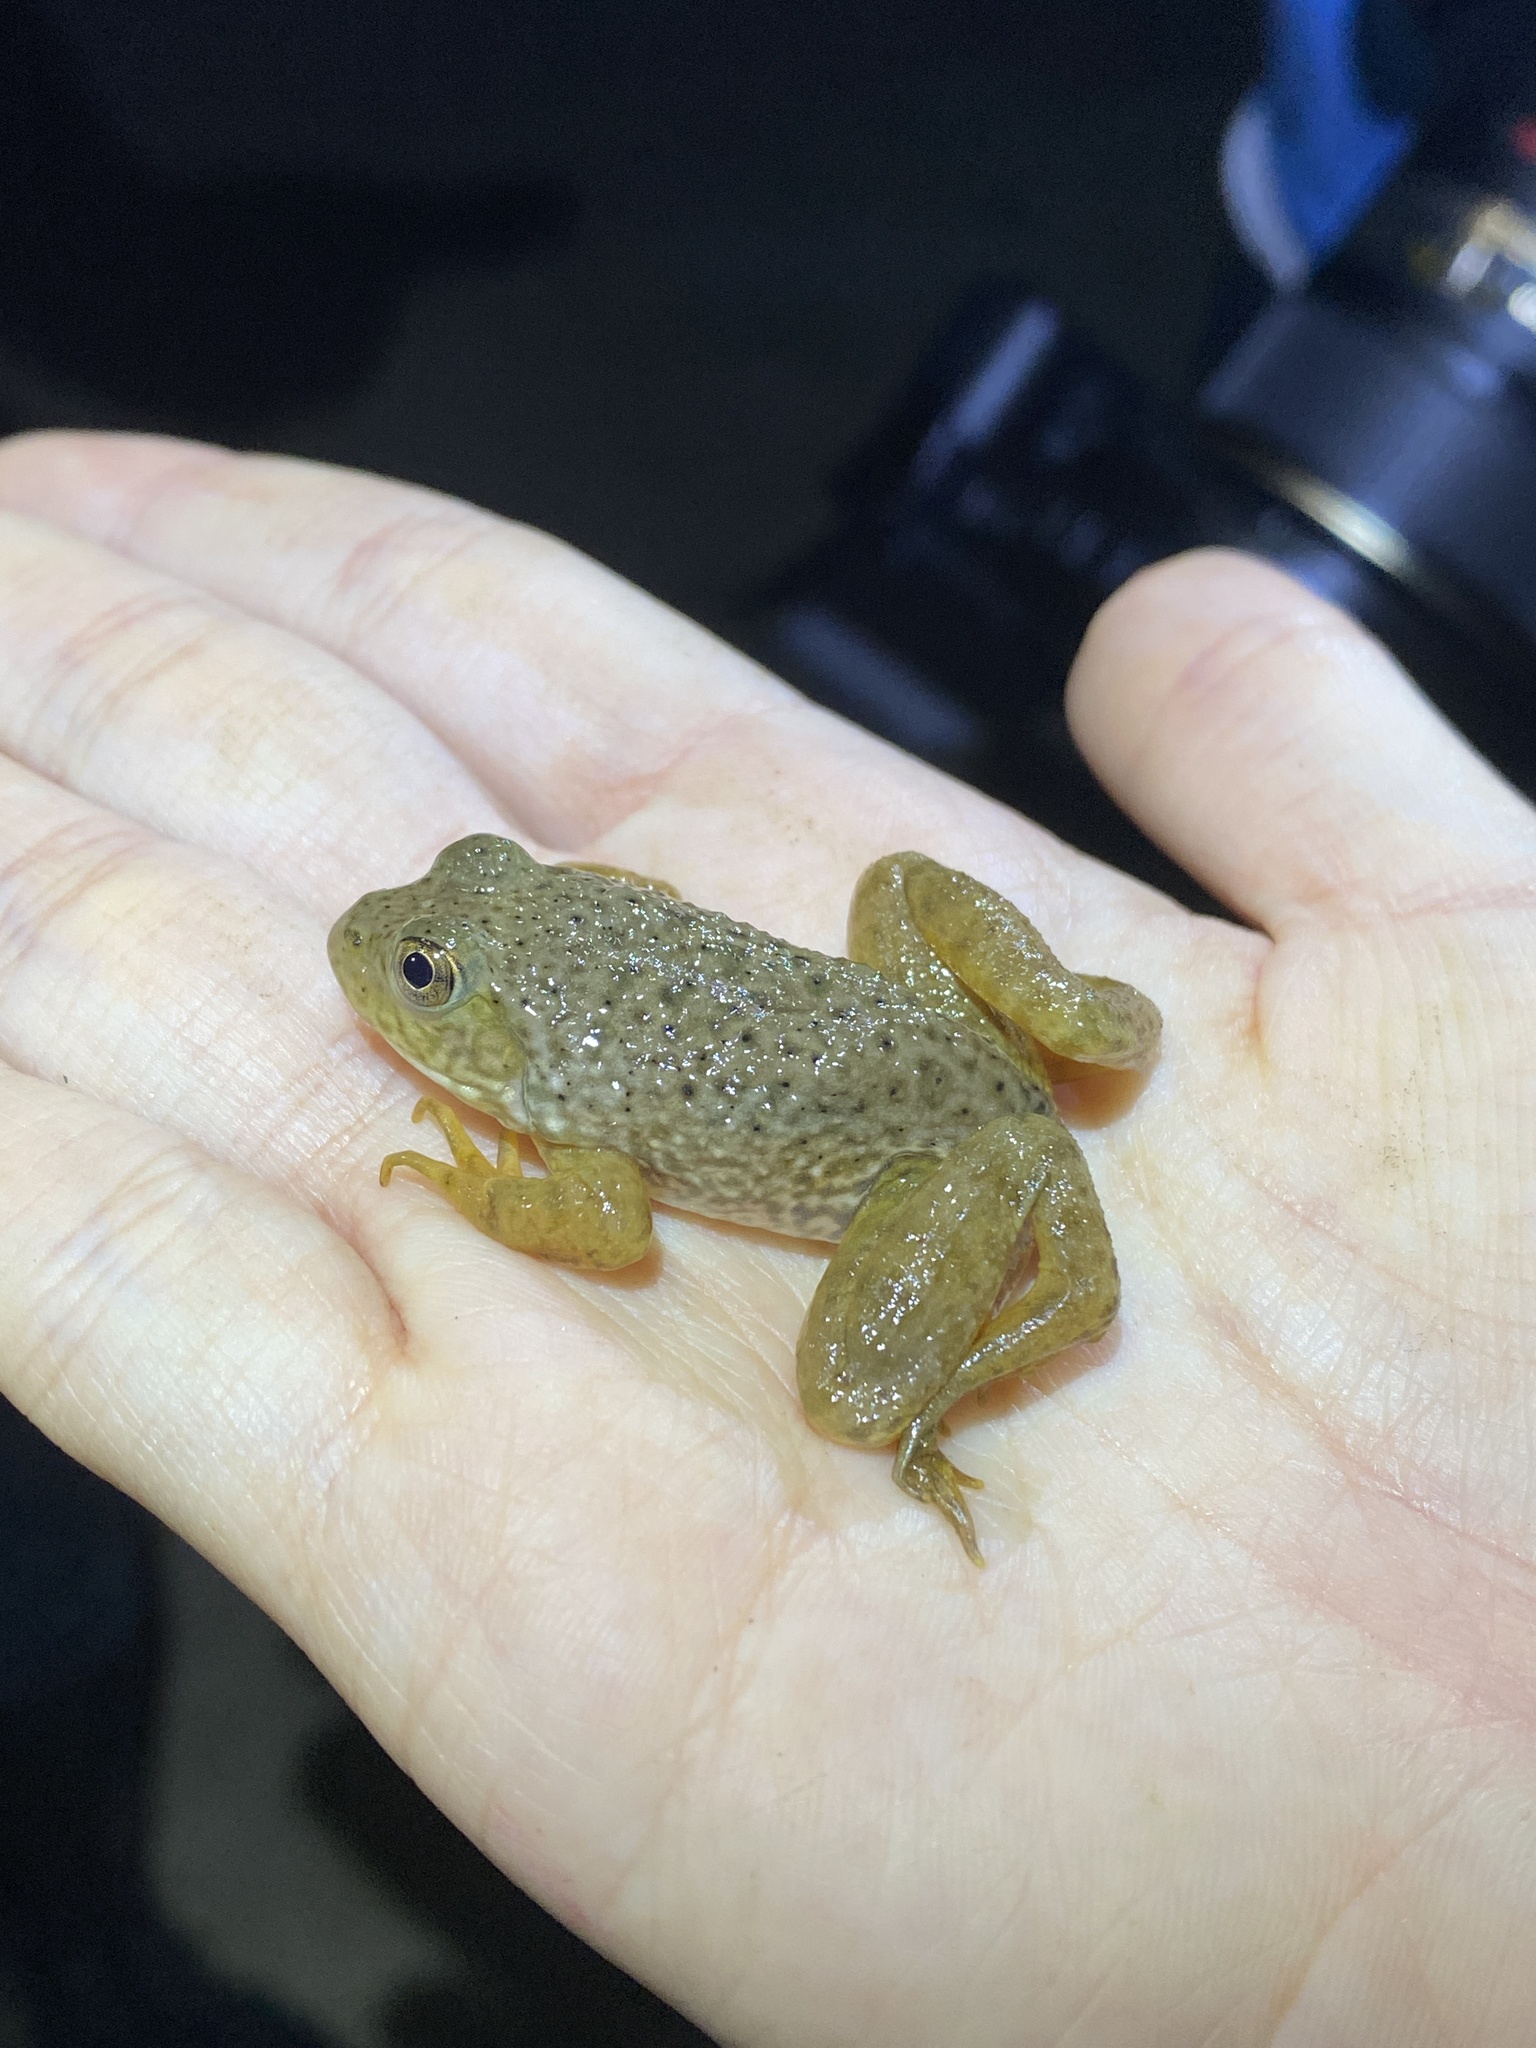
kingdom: Animalia
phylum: Chordata
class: Amphibia
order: Anura
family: Ranidae
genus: Lithobates
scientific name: Lithobates catesbeianus
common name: American bullfrog
